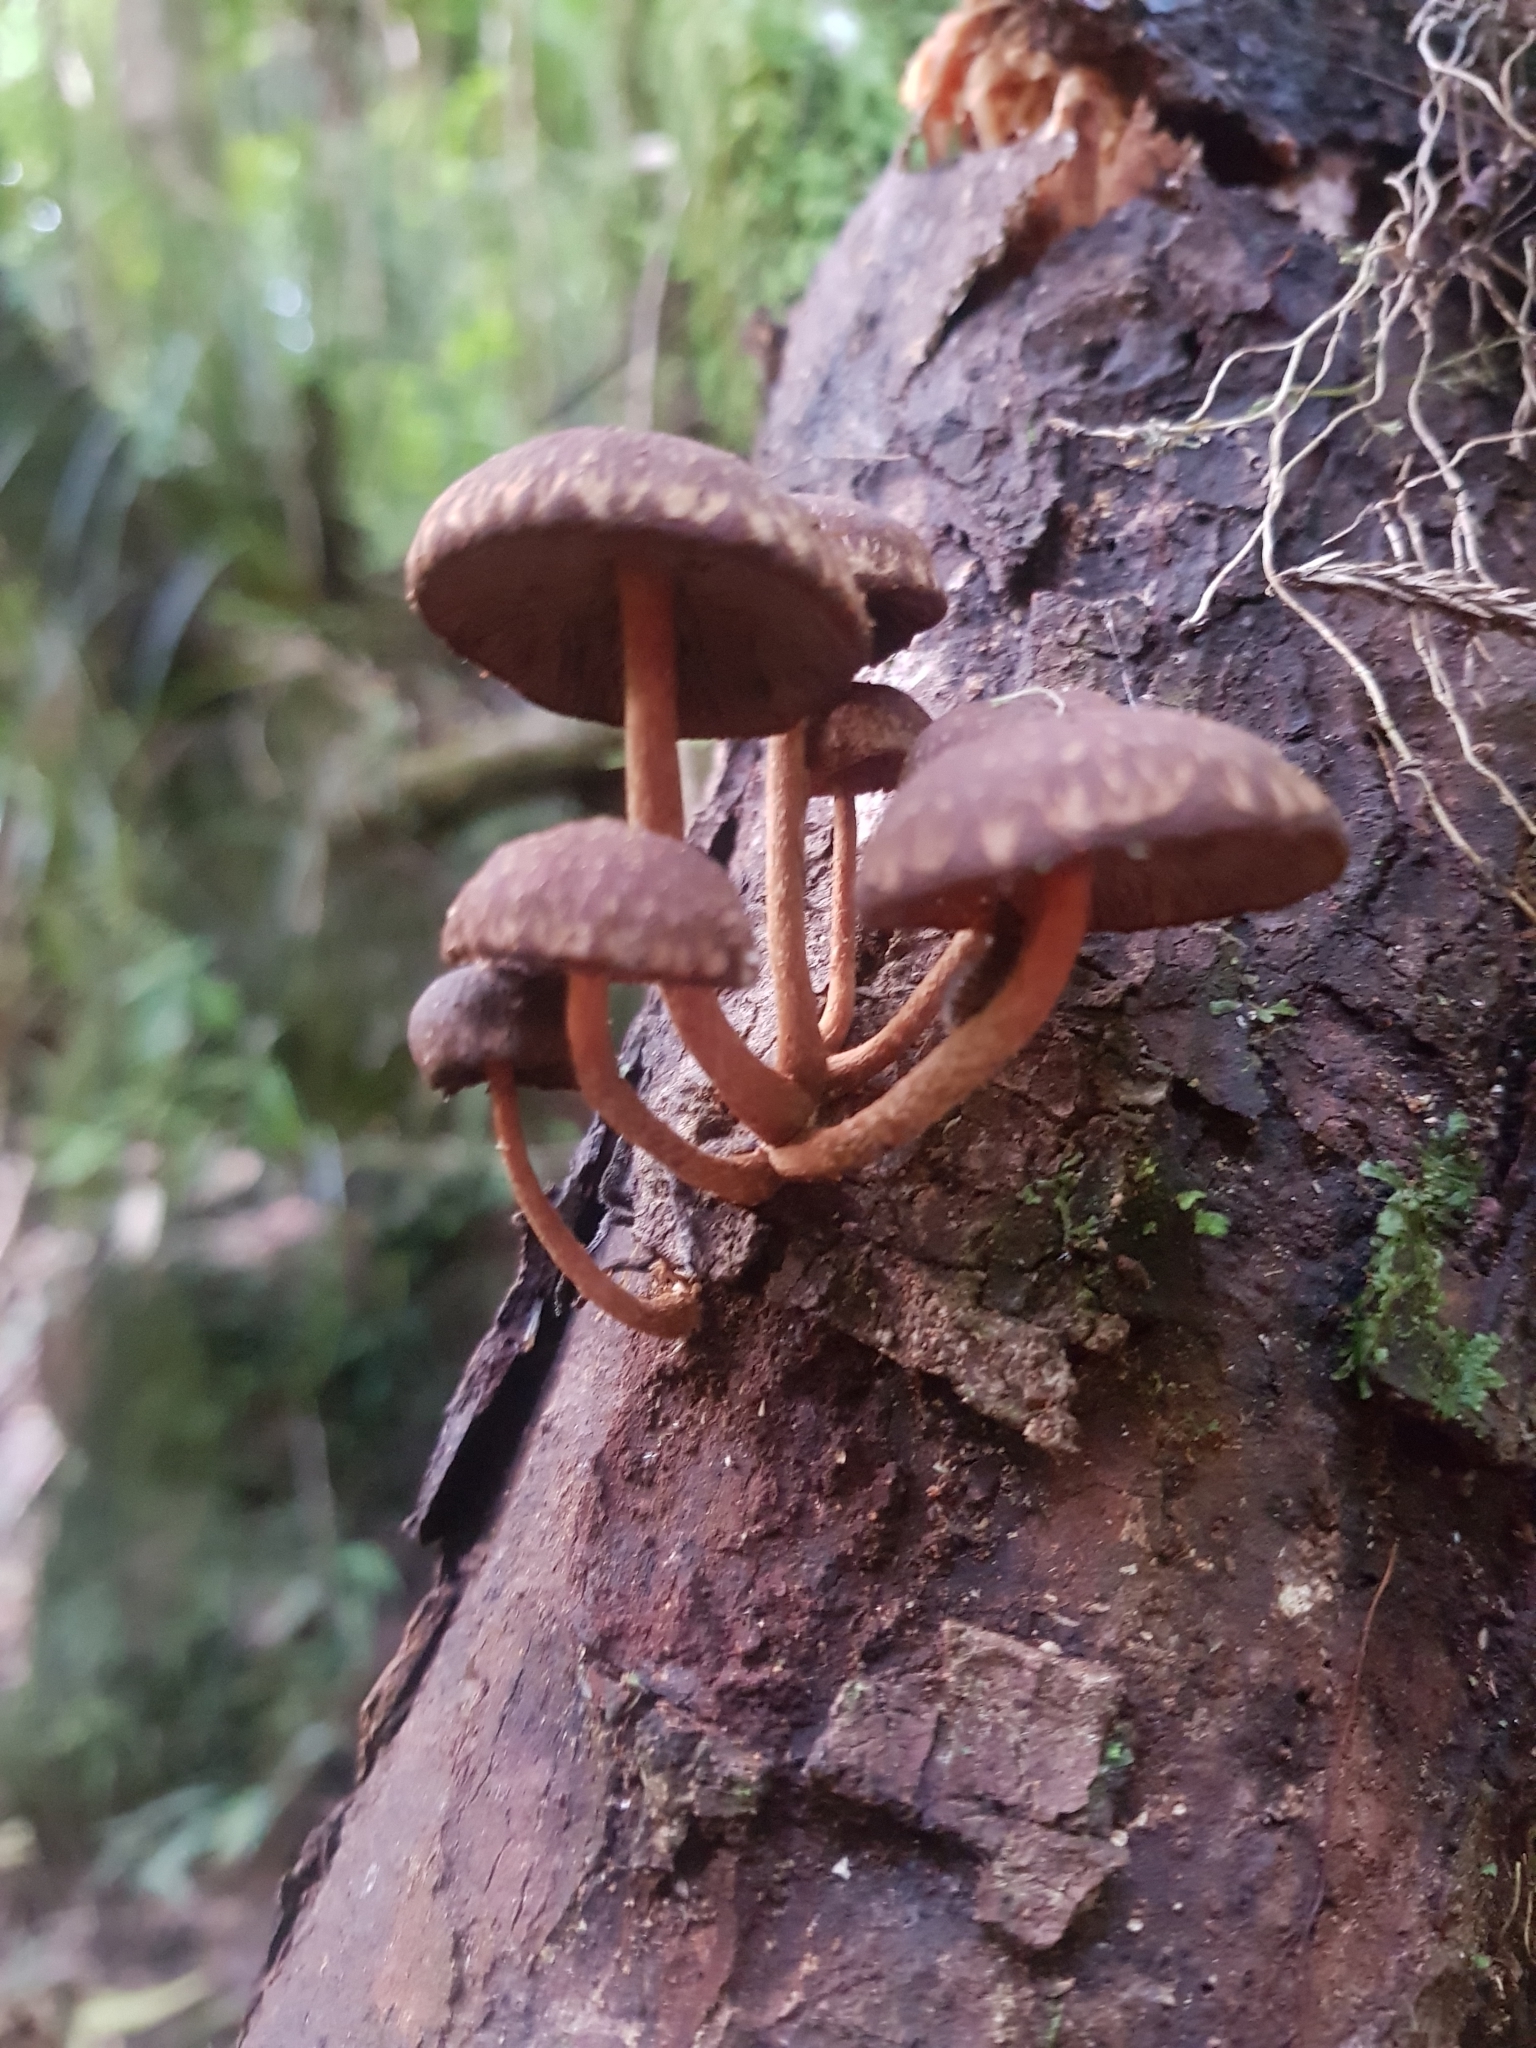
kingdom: Fungi
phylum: Basidiomycota
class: Agaricomycetes
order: Agaricales
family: Strophariaceae
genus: Hypholoma
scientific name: Hypholoma brunneum
